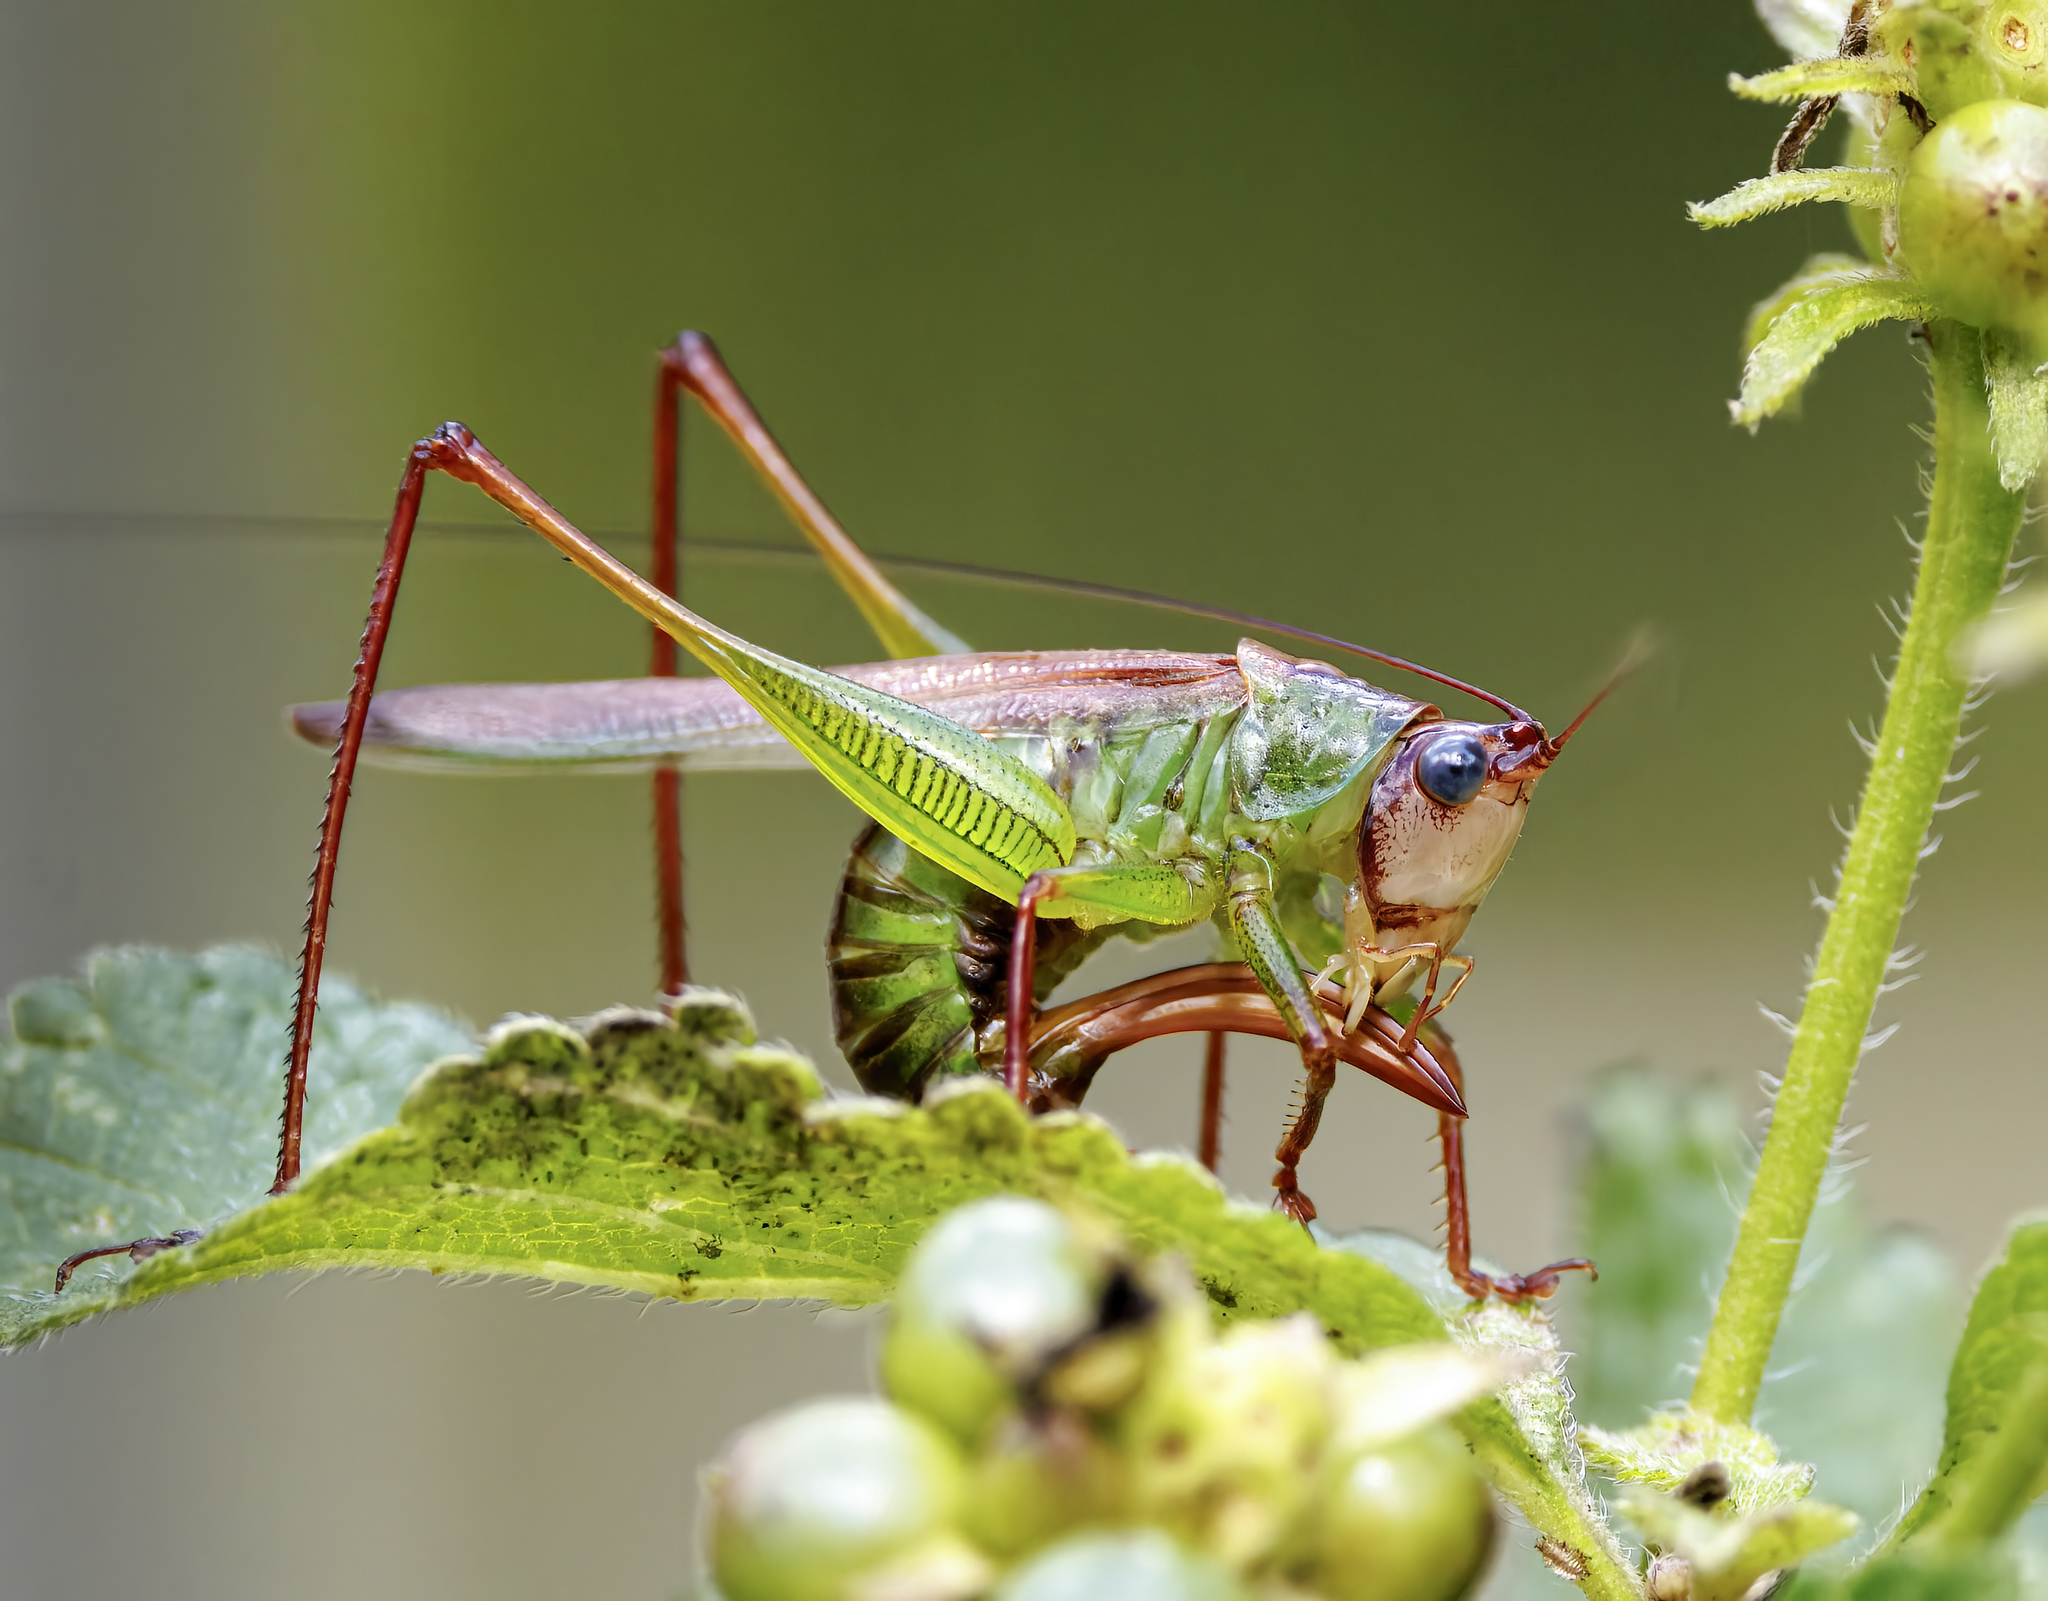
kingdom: Animalia
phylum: Arthropoda
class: Insecta
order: Orthoptera
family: Tettigoniidae
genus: Orchelimum
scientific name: Orchelimum pulchellum
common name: Handsome meadow katydid
